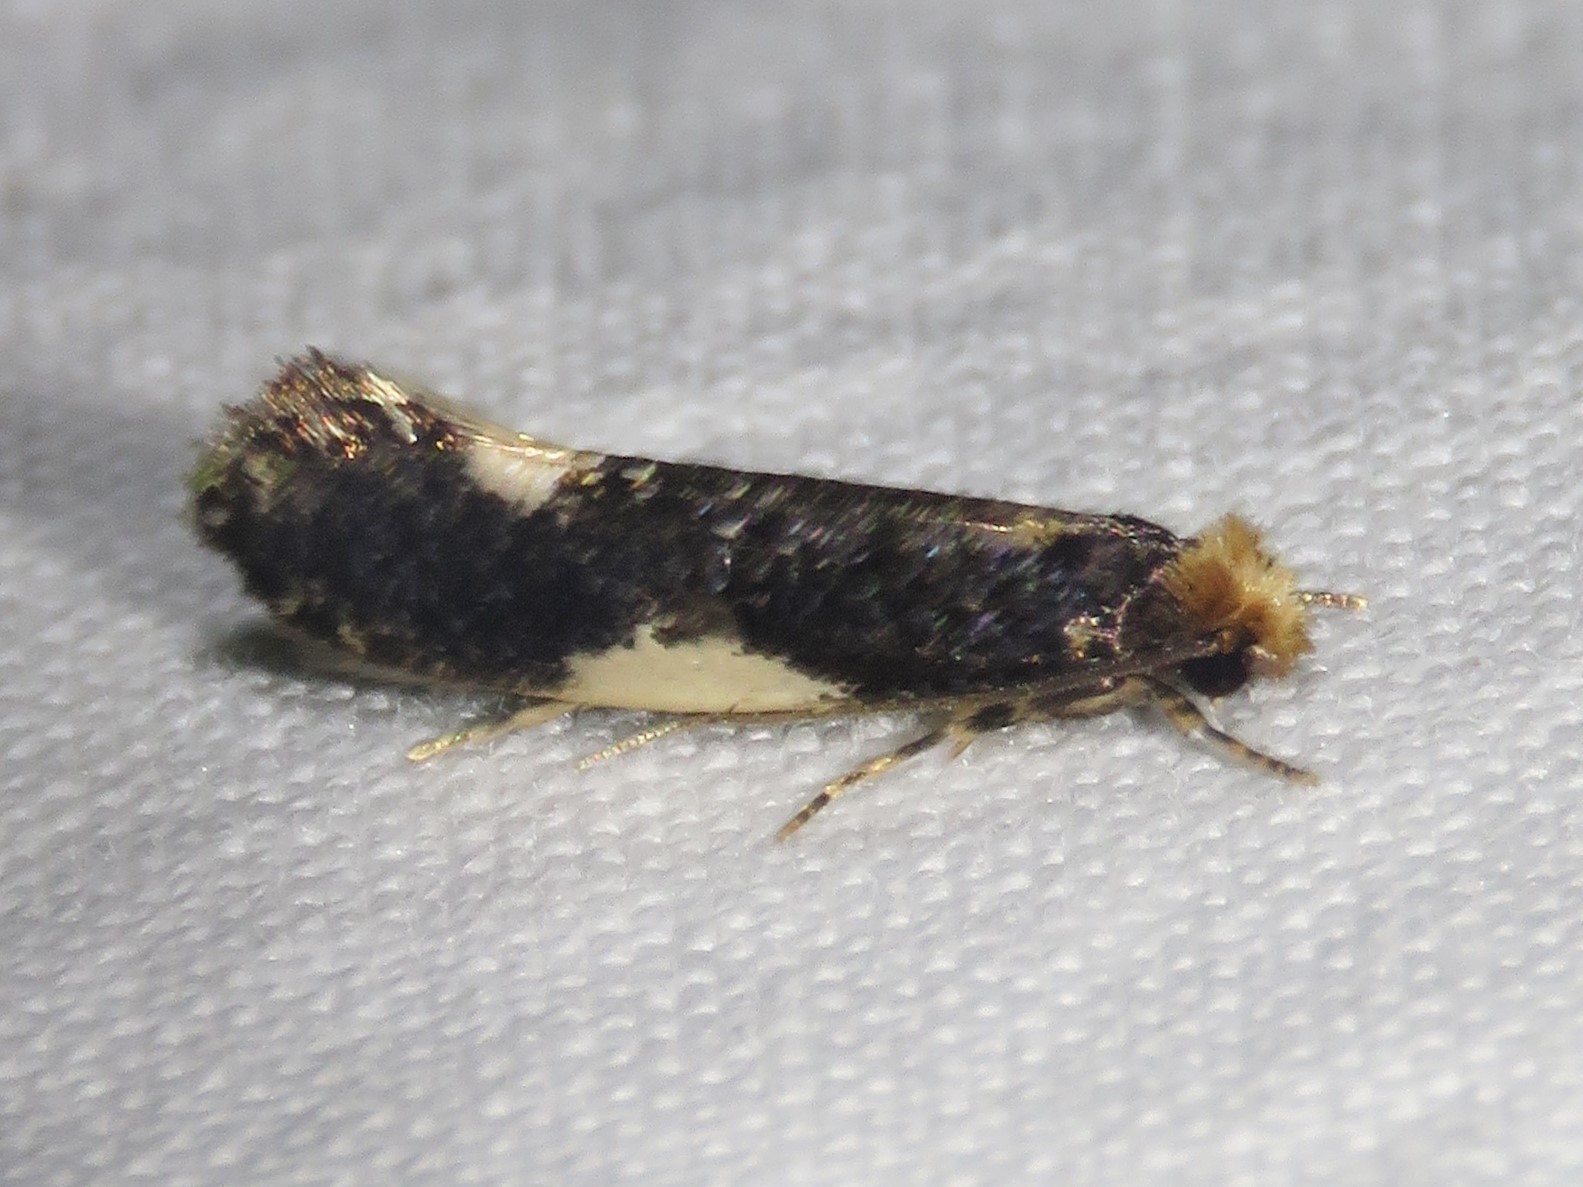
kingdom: Animalia
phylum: Arthropoda
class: Insecta
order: Lepidoptera
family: Tineidae
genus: Monopis
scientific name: Monopis spilotella
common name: Orange-headed monopis
